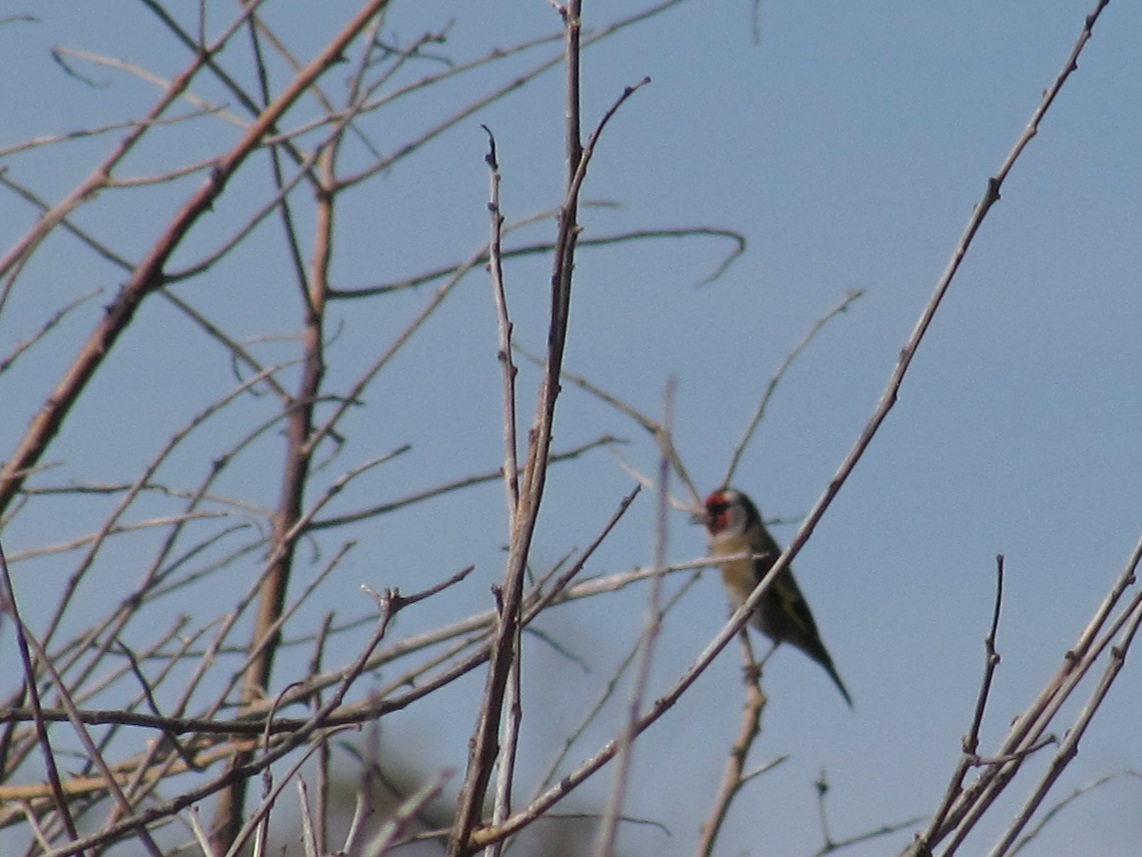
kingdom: Animalia
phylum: Chordata
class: Aves
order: Passeriformes
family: Fringillidae
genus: Carduelis
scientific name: Carduelis carduelis
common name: European goldfinch
